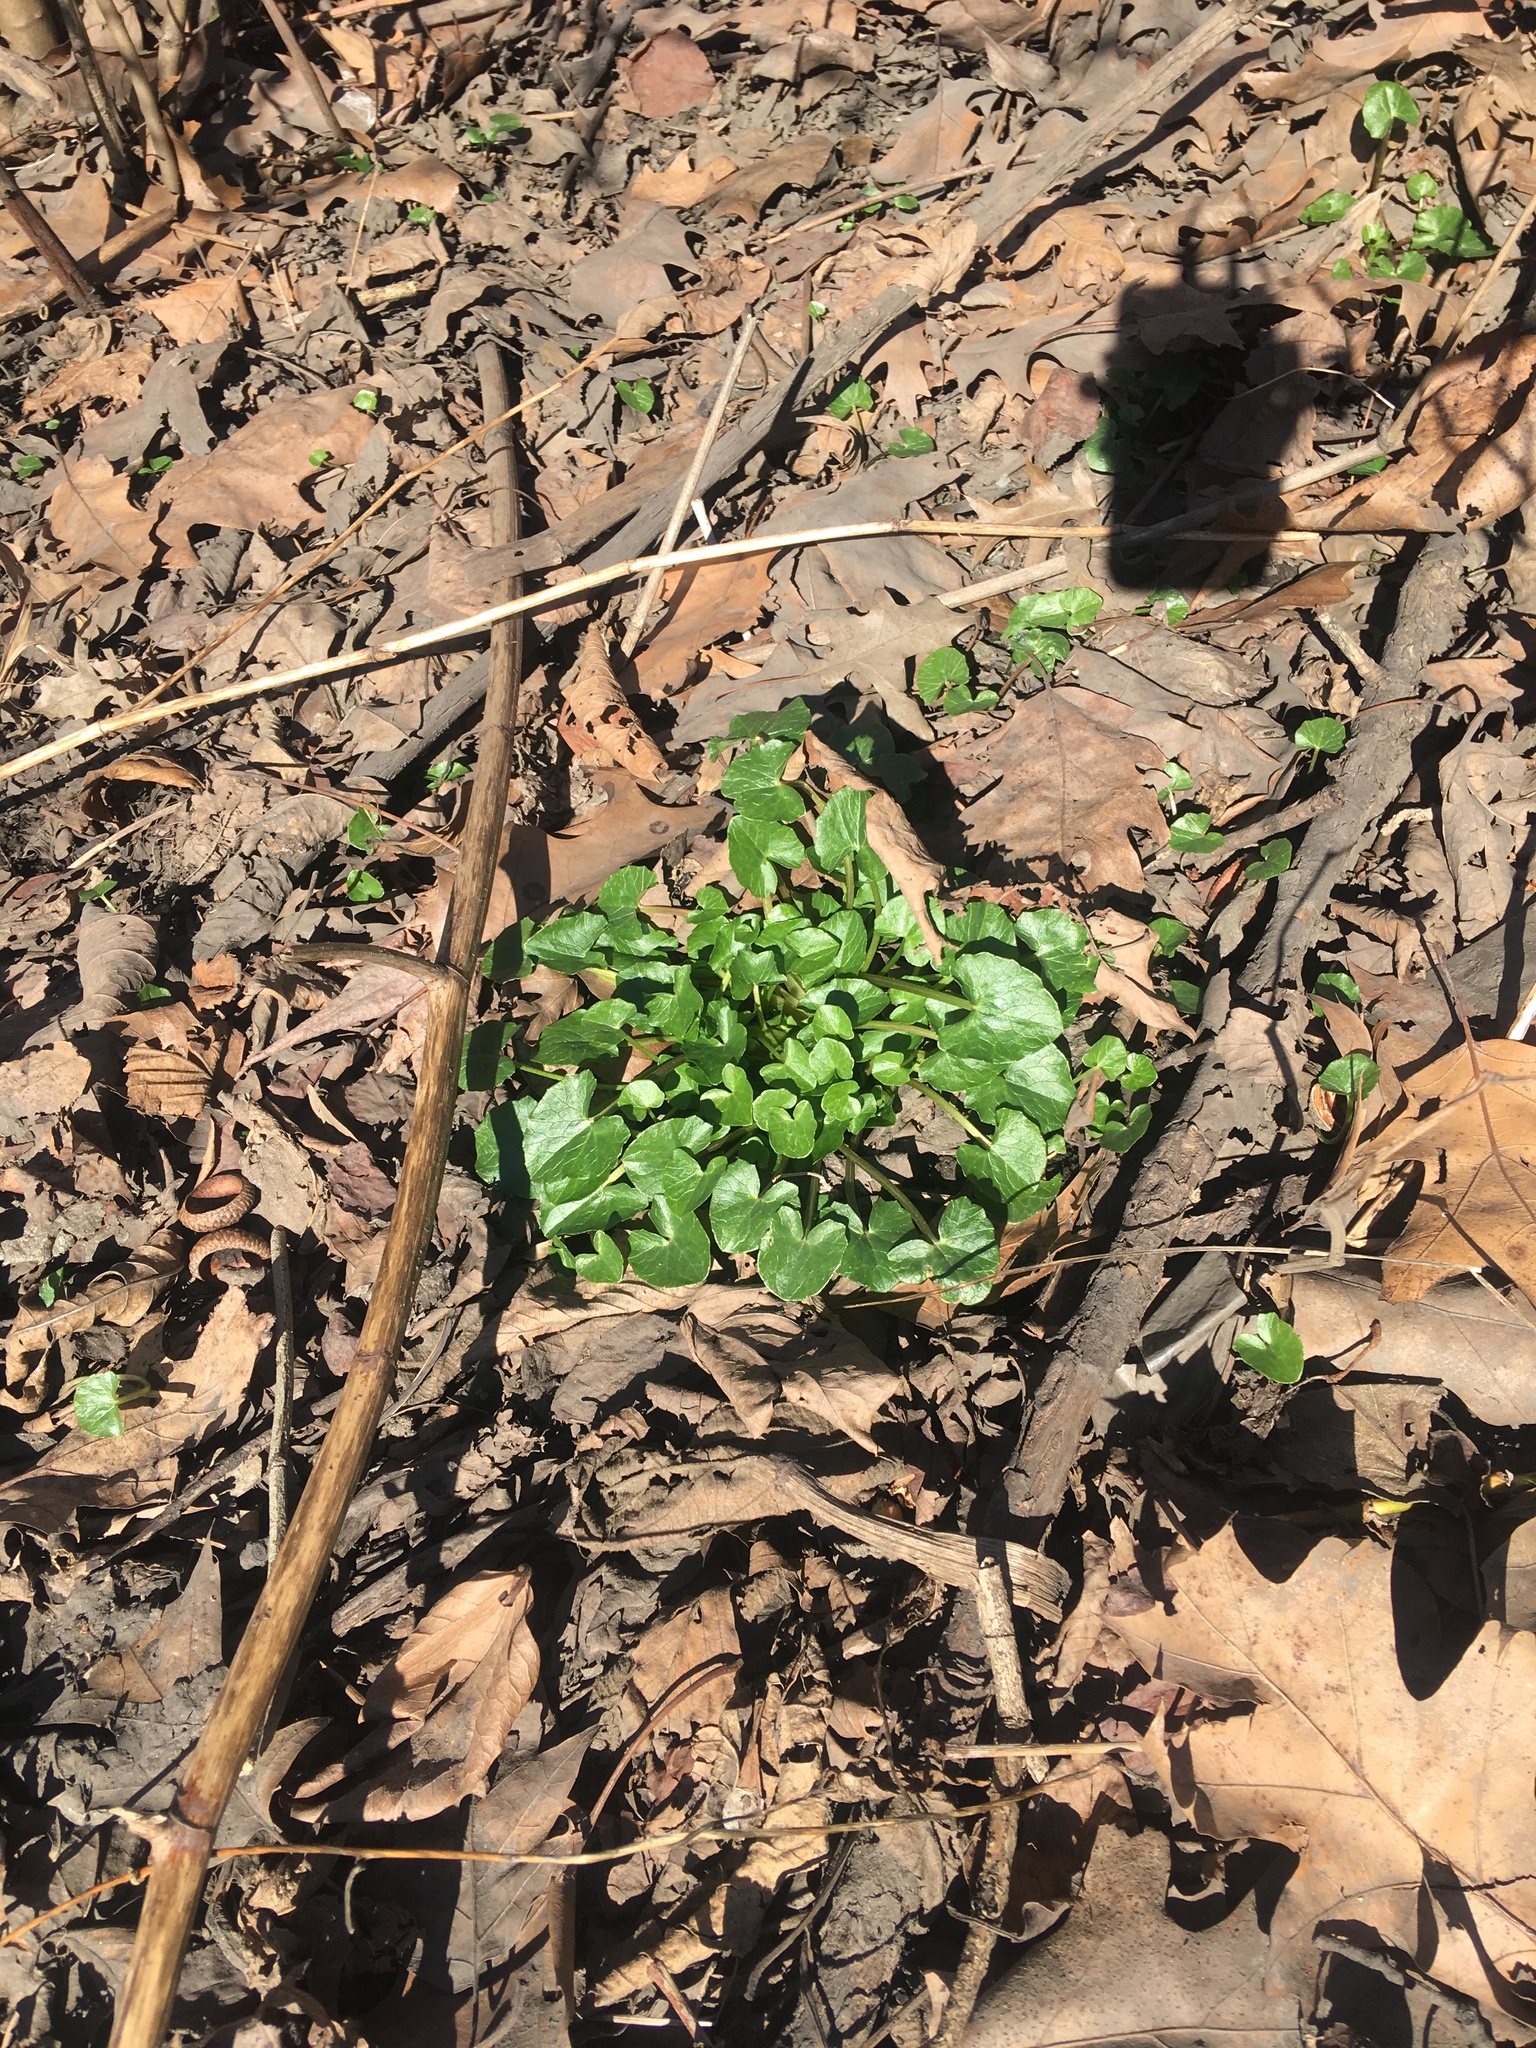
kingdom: Plantae
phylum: Tracheophyta
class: Magnoliopsida
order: Ranunculales
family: Ranunculaceae
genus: Ficaria
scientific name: Ficaria verna
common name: Lesser celandine
